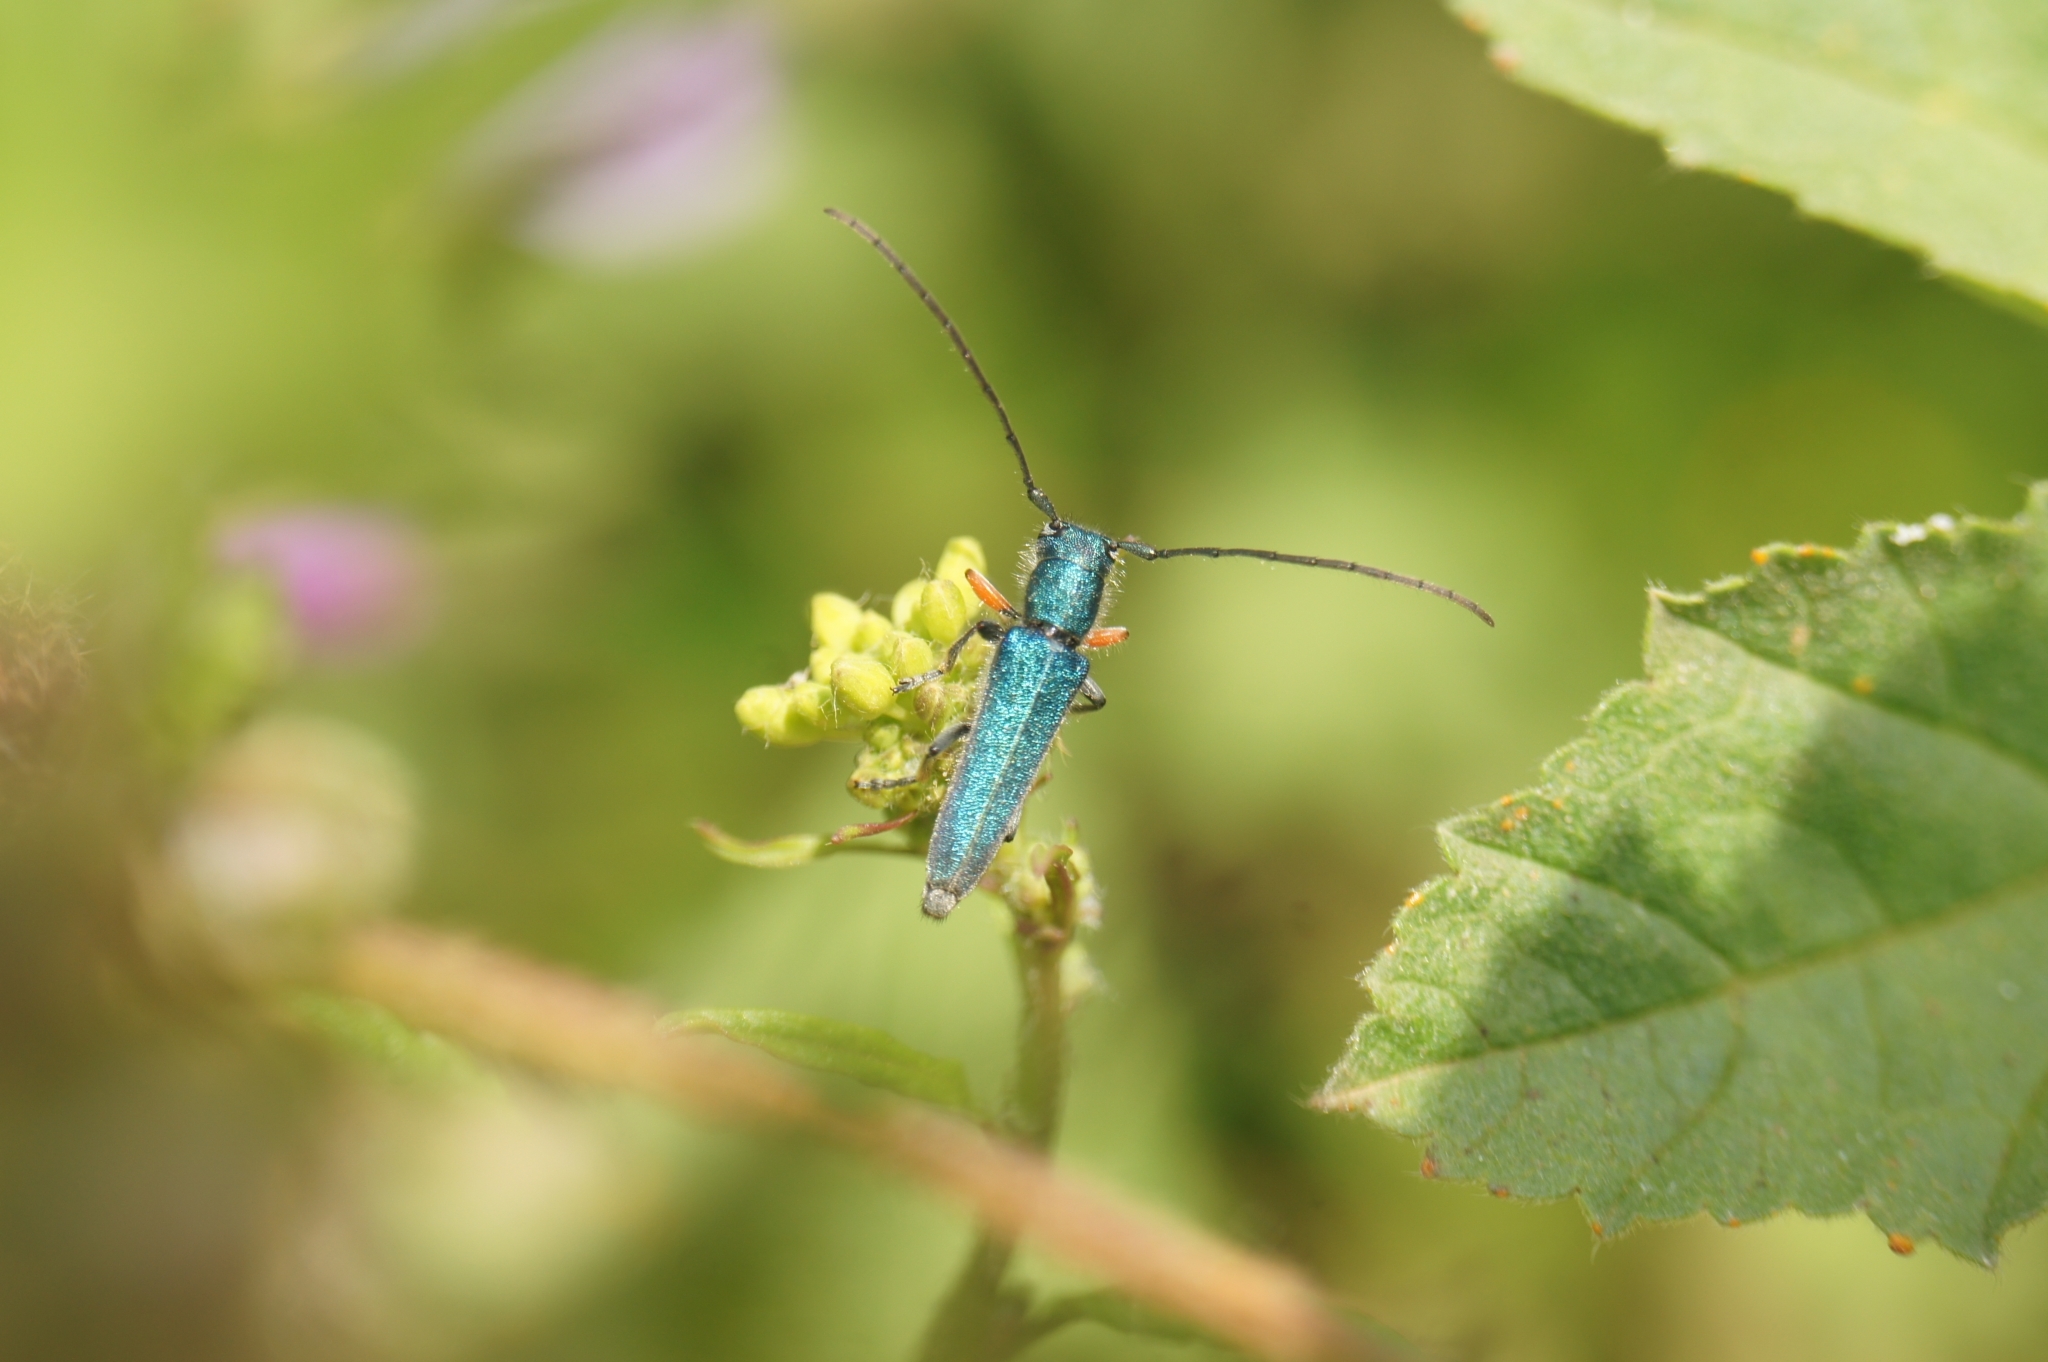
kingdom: Animalia
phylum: Arthropoda
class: Insecta
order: Coleoptera
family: Cerambycidae
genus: Phytoecia
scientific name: Phytoecia caerulea
